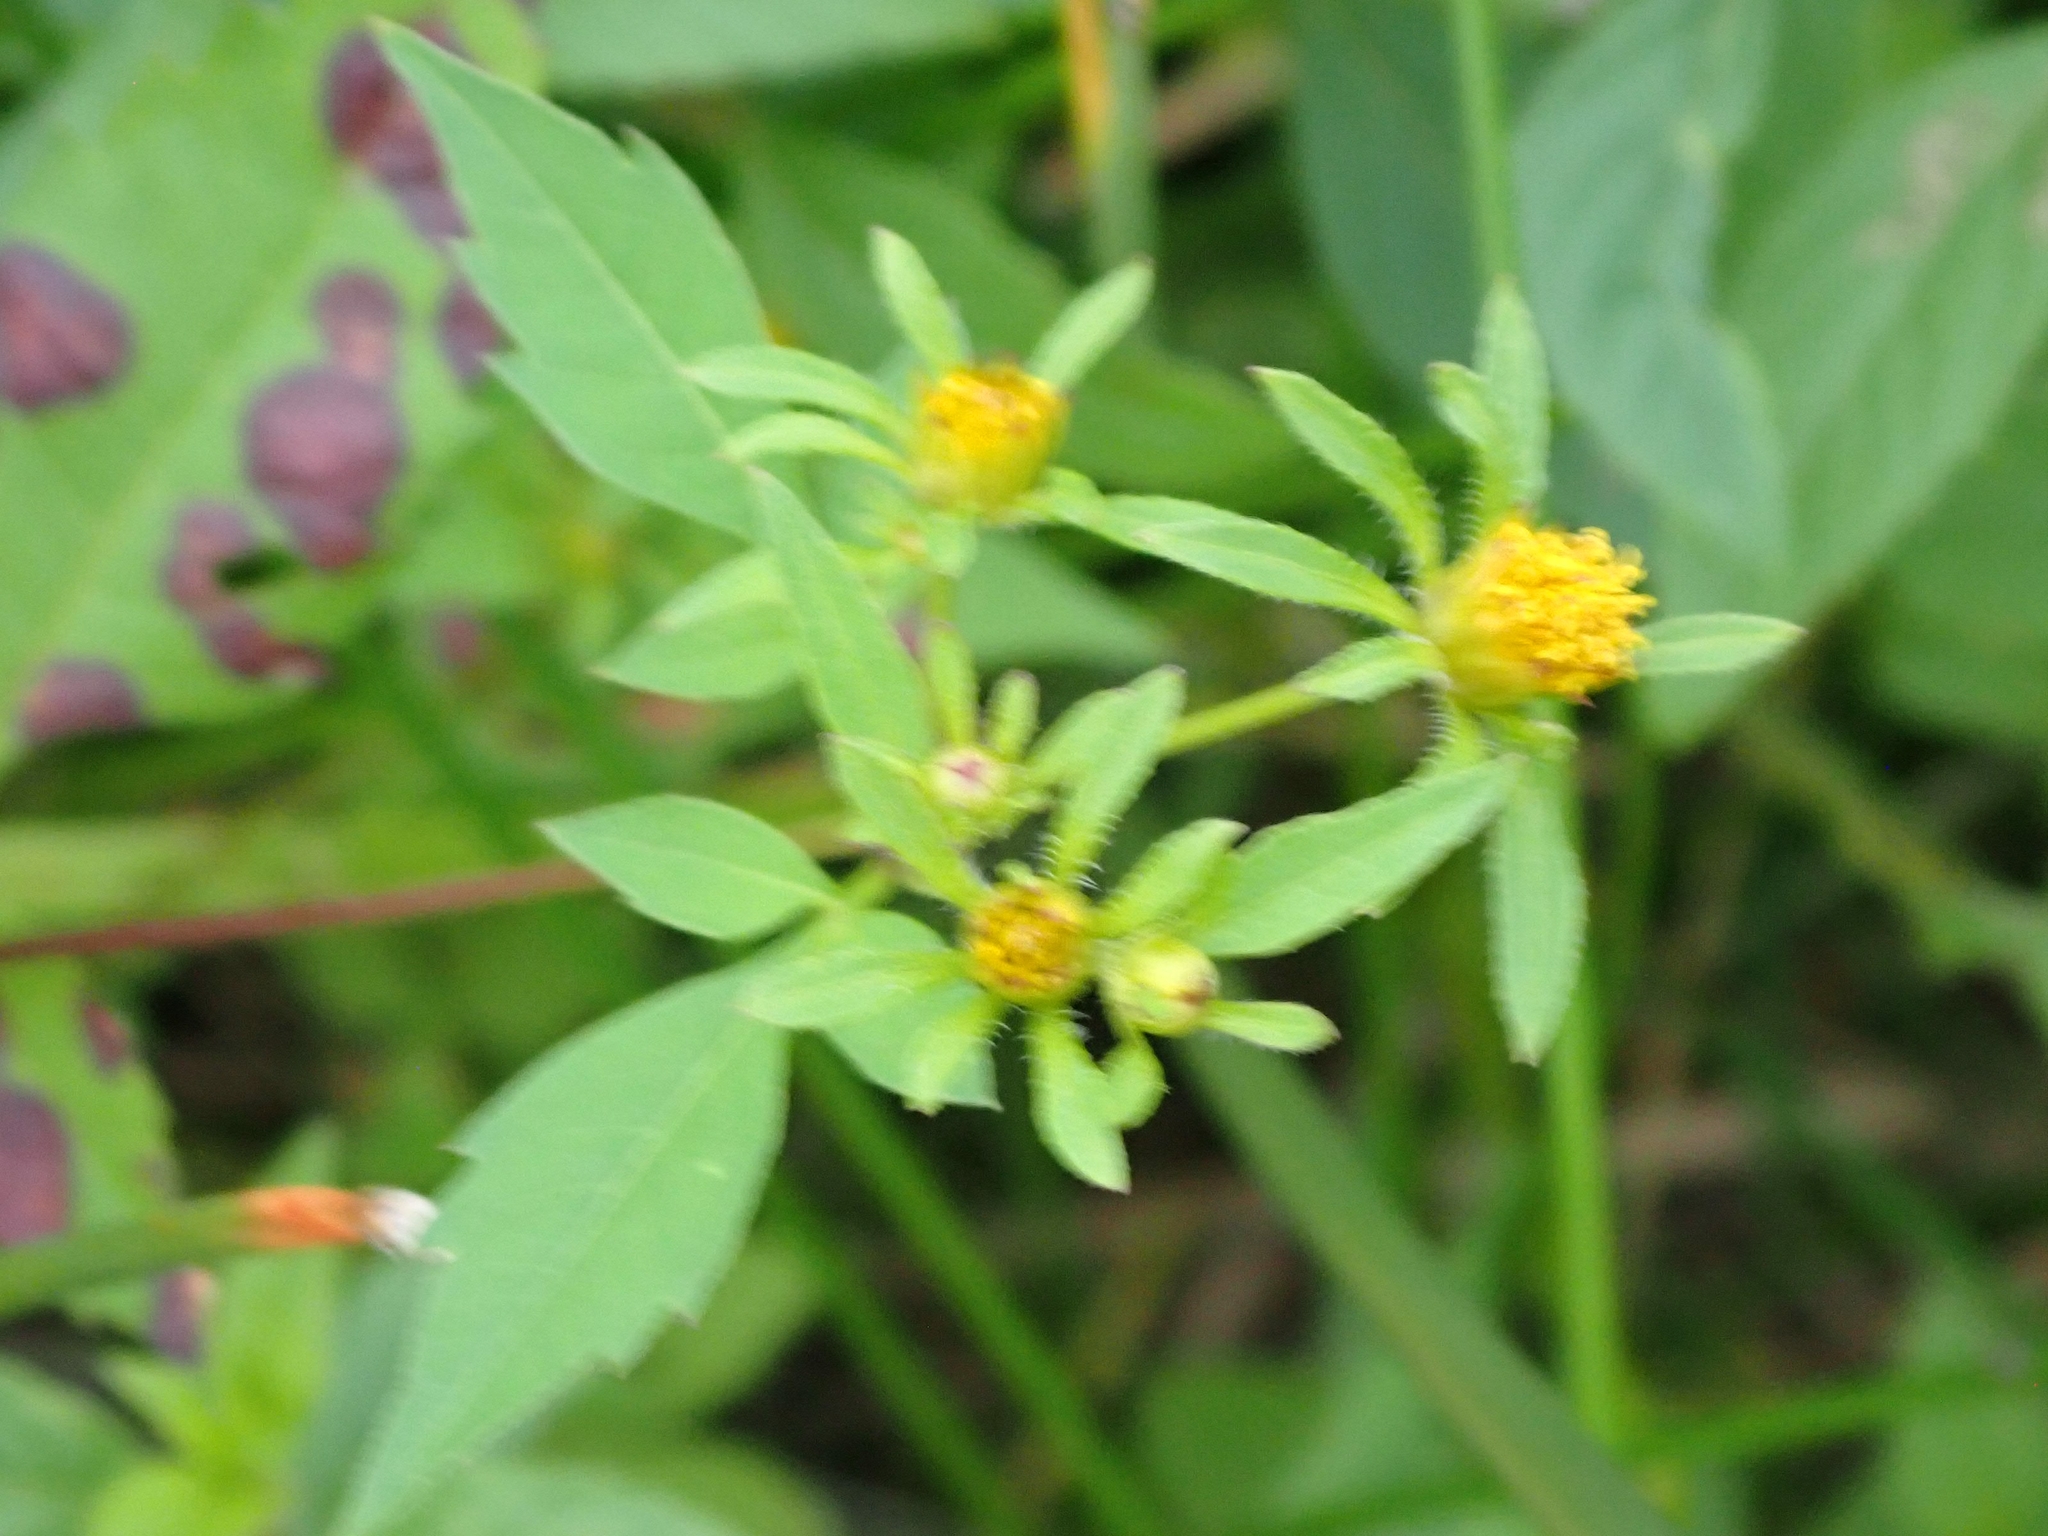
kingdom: Plantae
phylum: Tracheophyta
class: Magnoliopsida
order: Asterales
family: Asteraceae
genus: Bidens
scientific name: Bidens frondosa
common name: Beggarticks
